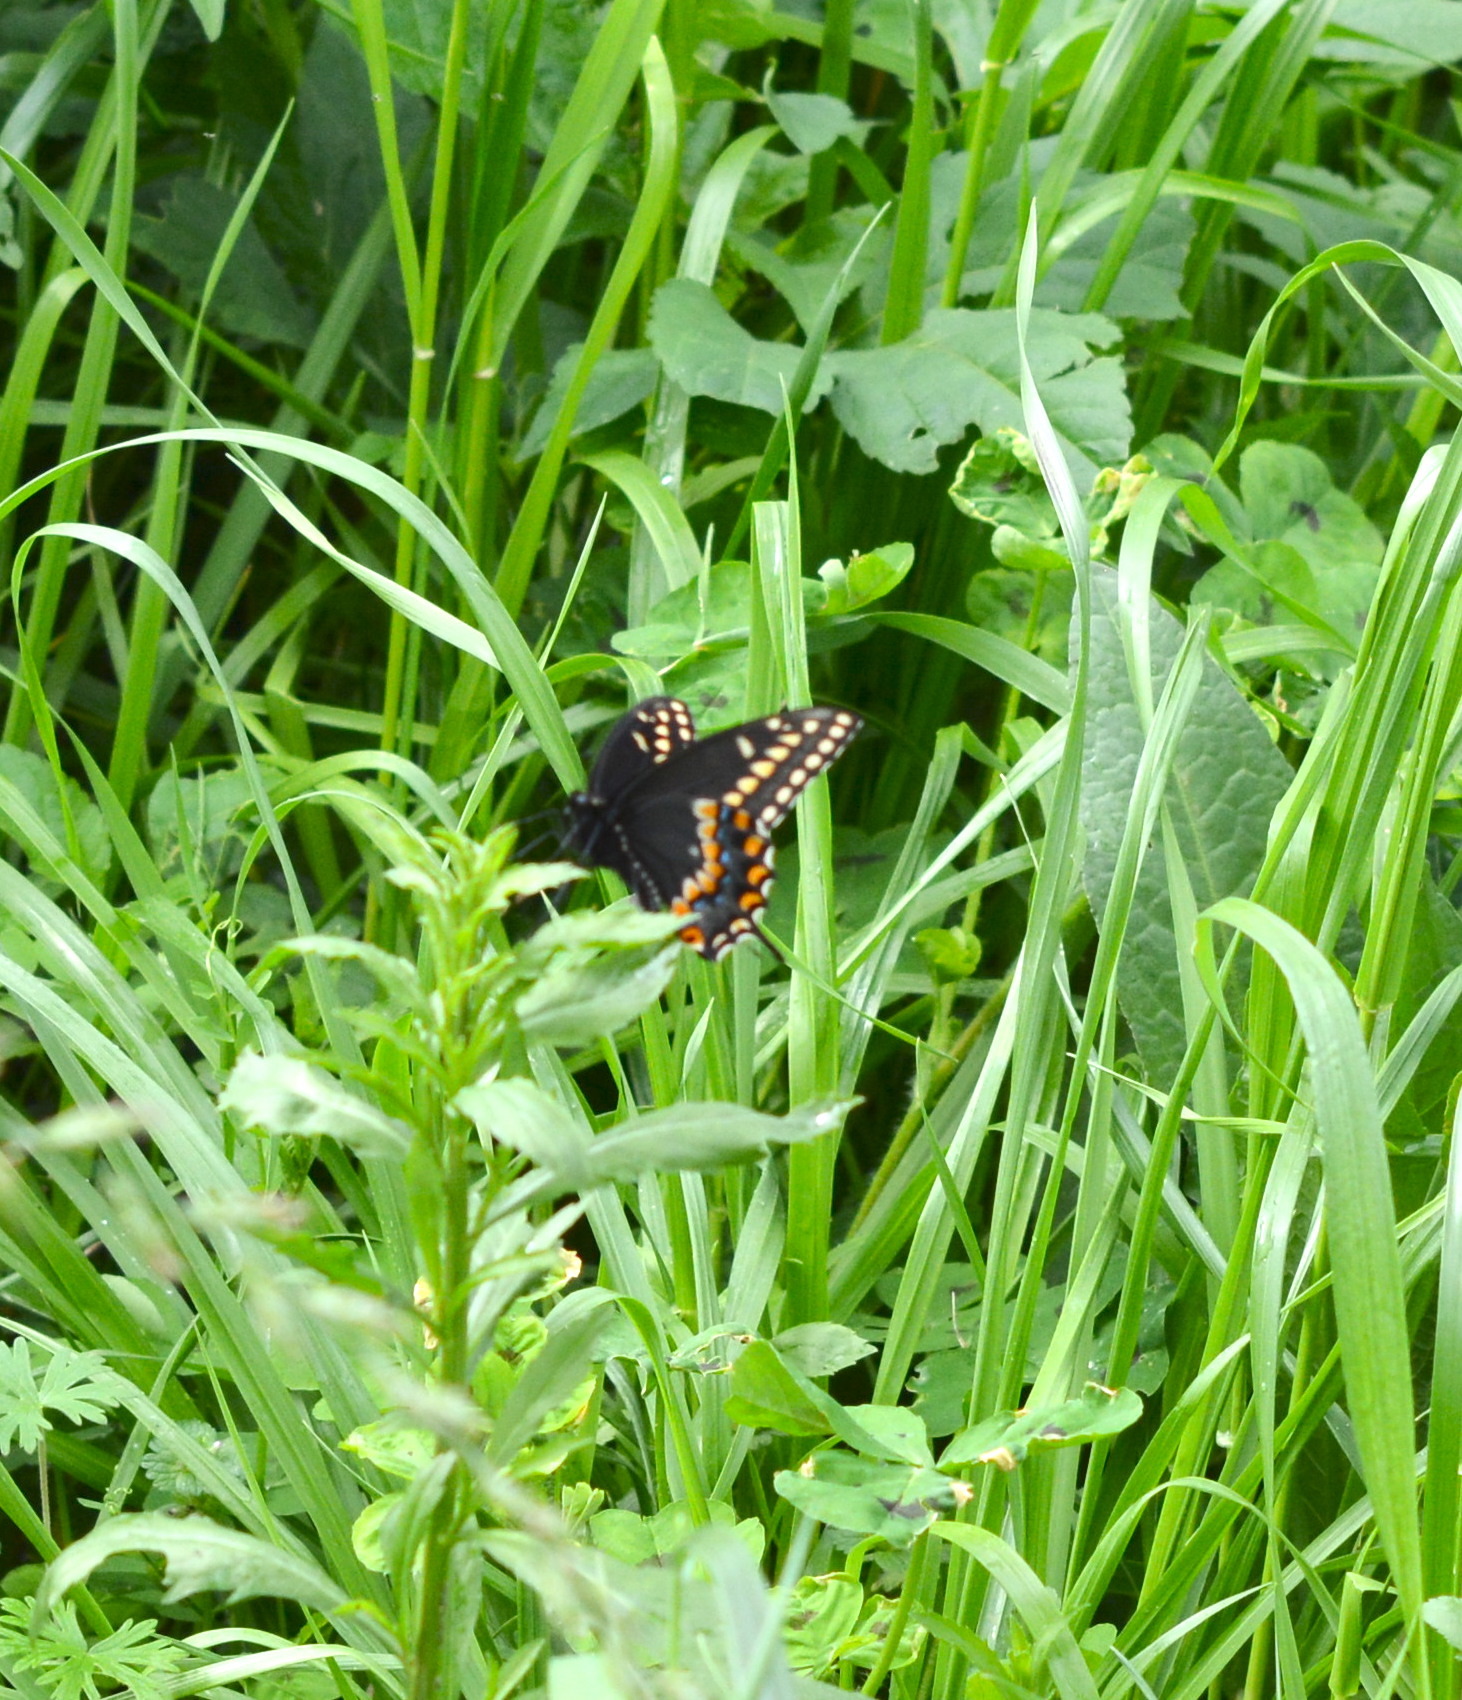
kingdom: Animalia
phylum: Arthropoda
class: Insecta
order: Lepidoptera
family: Papilionidae
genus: Papilio
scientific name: Papilio polyxenes
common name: Black swallowtail
